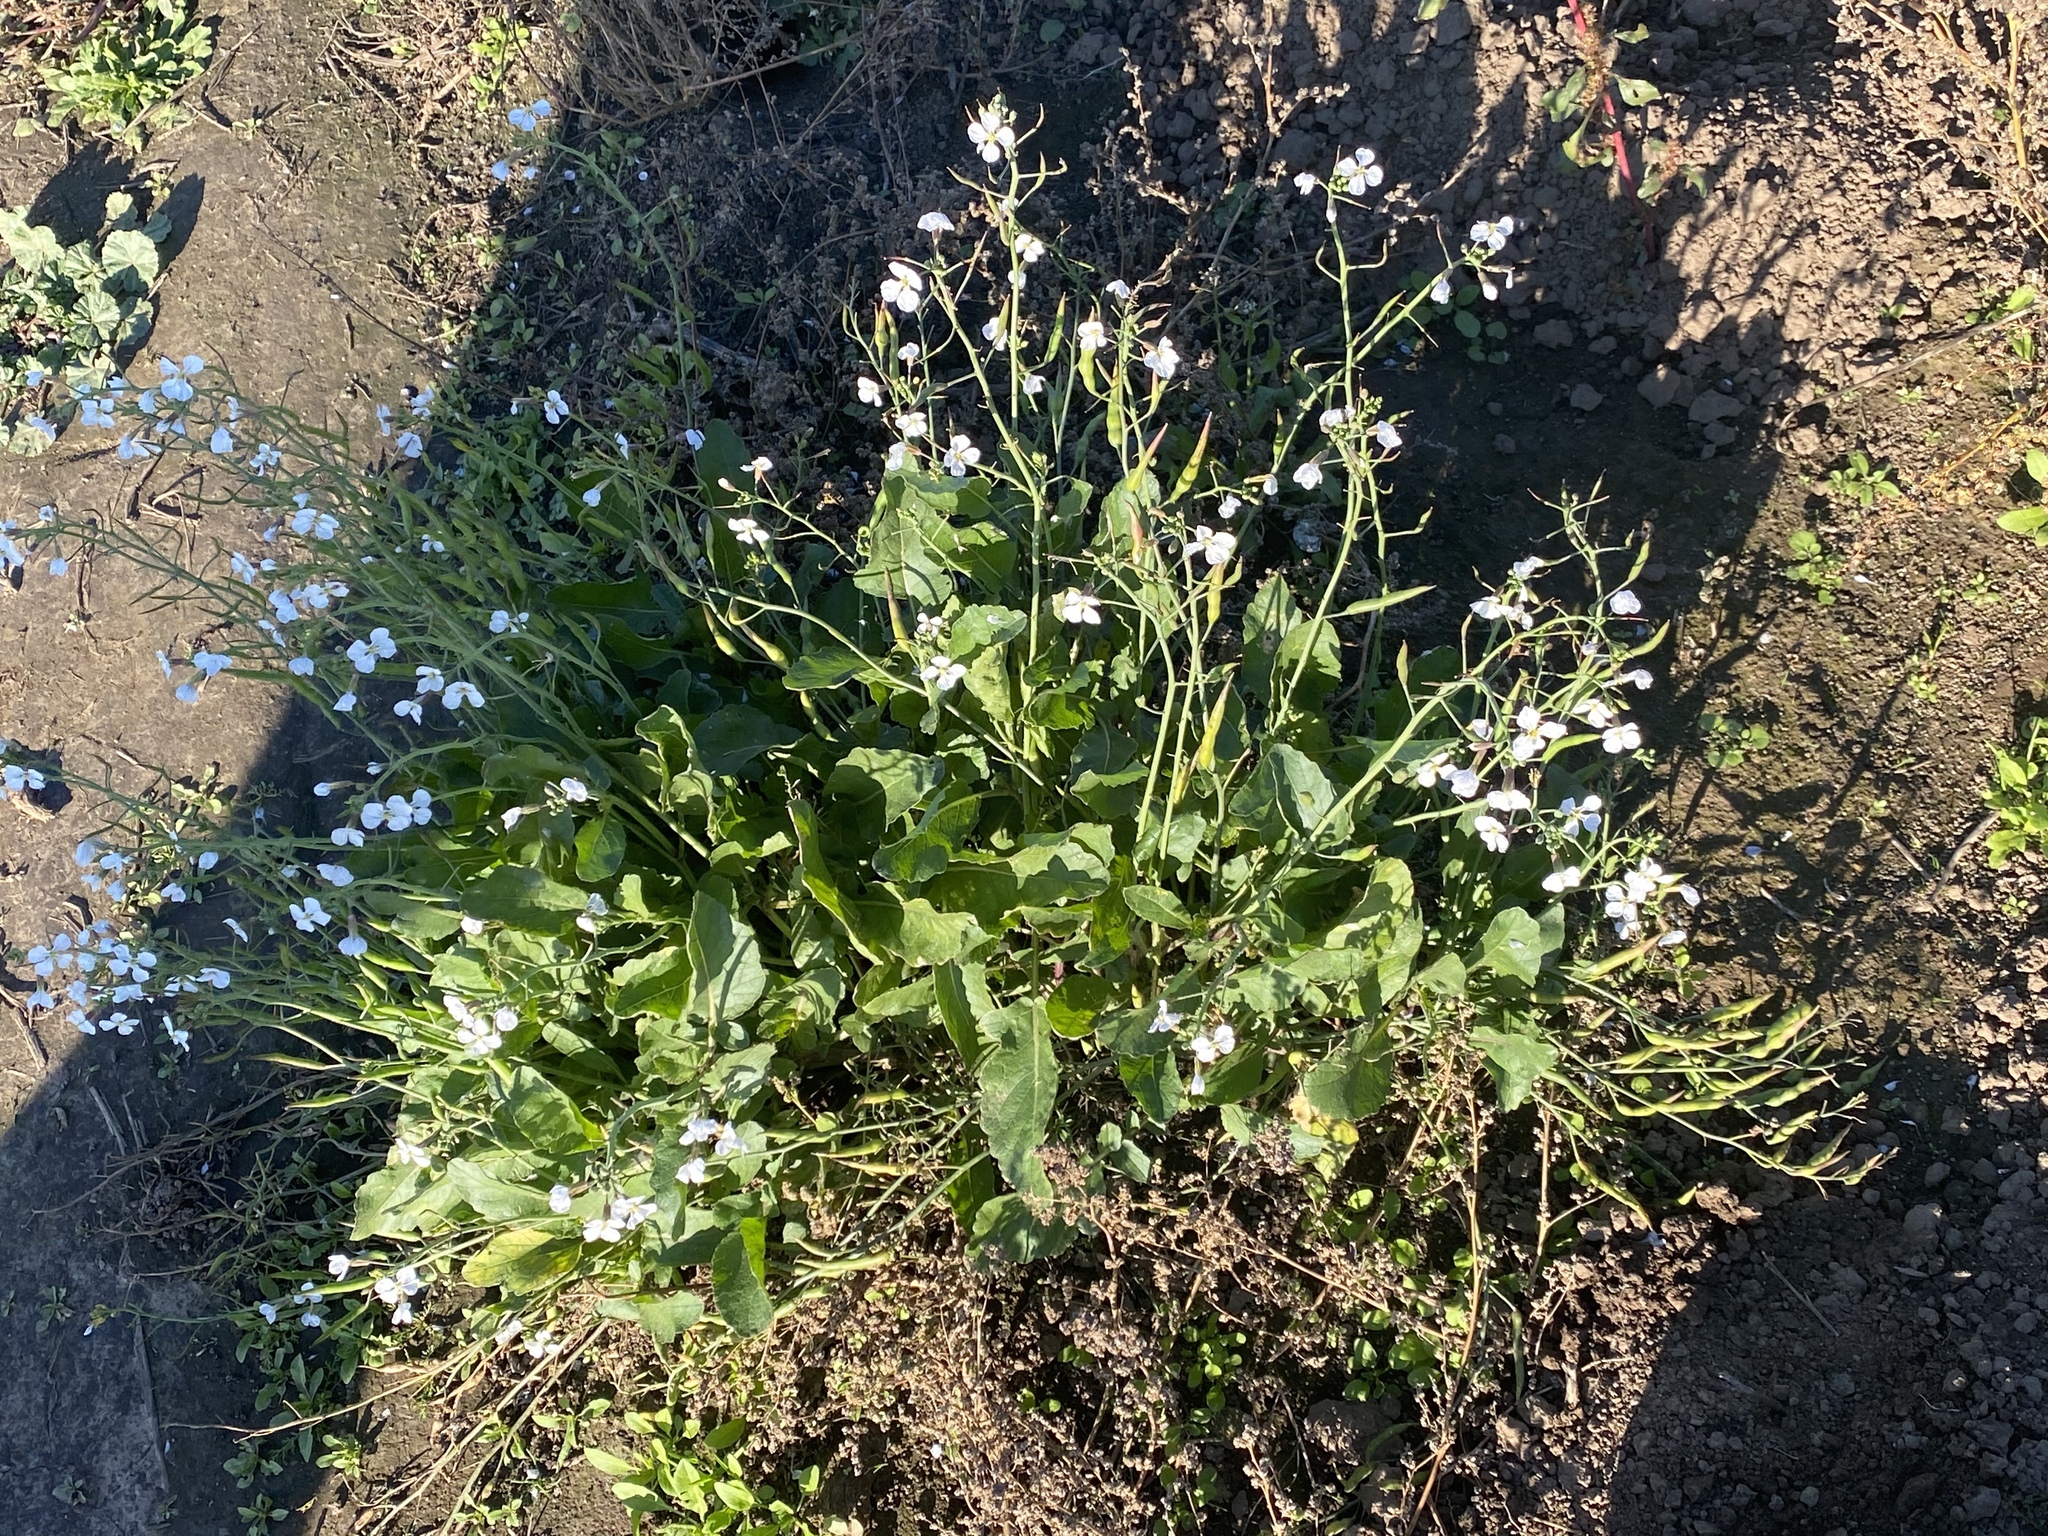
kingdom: Plantae
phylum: Tracheophyta
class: Magnoliopsida
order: Brassicales
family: Brassicaceae
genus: Raphanus
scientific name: Raphanus raphanistrum
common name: Wild radish
